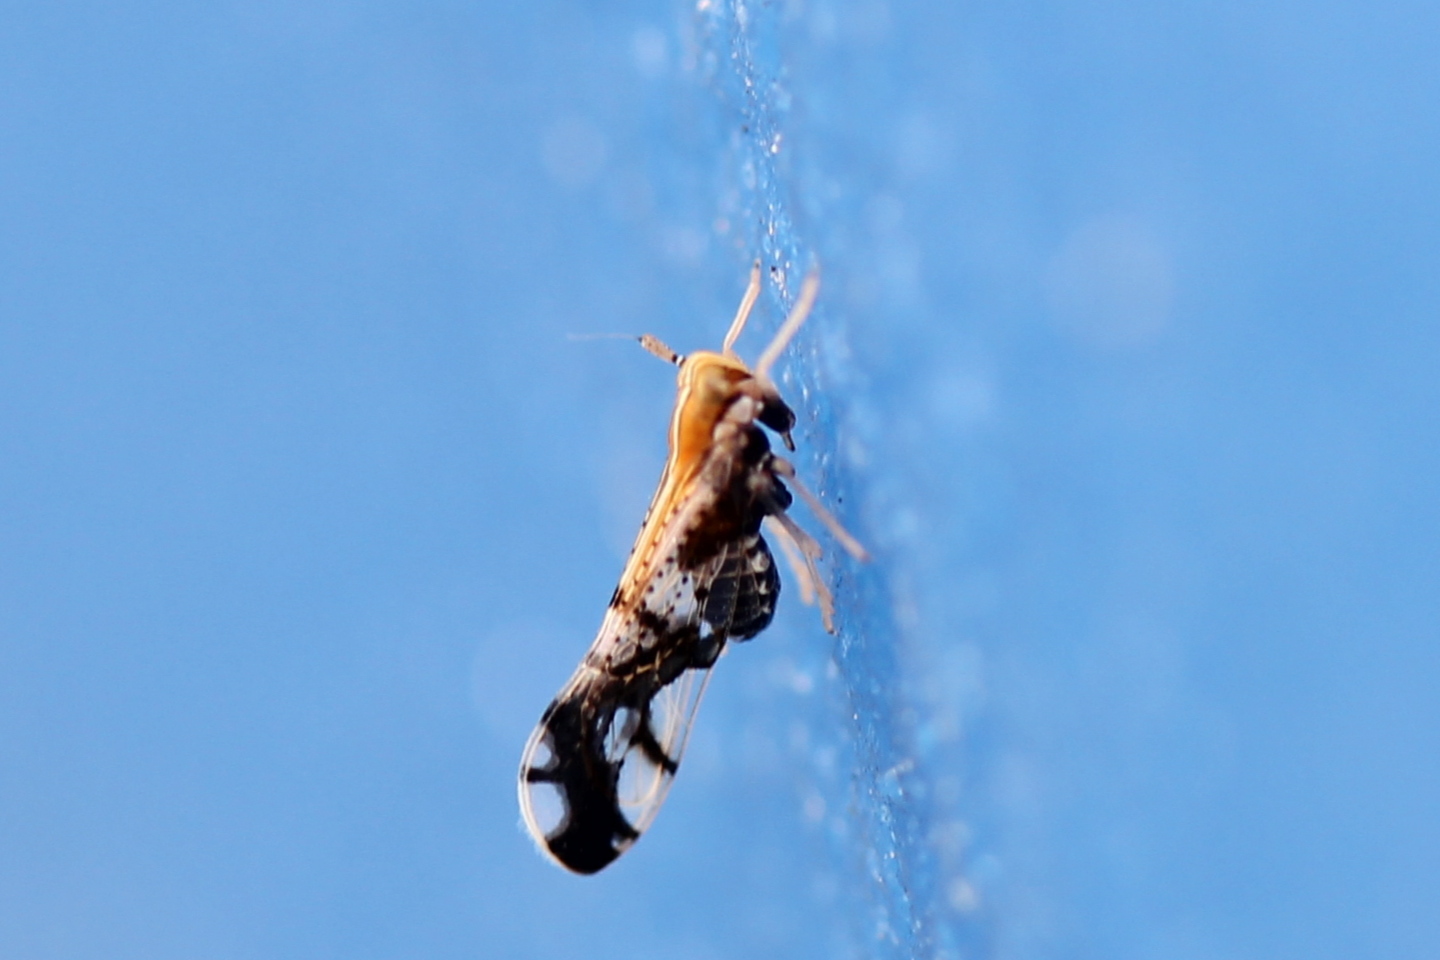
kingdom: Animalia
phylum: Arthropoda
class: Insecta
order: Hemiptera
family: Delphacidae
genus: Liburniella
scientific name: Liburniella ornata
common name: Ornate planthopper
